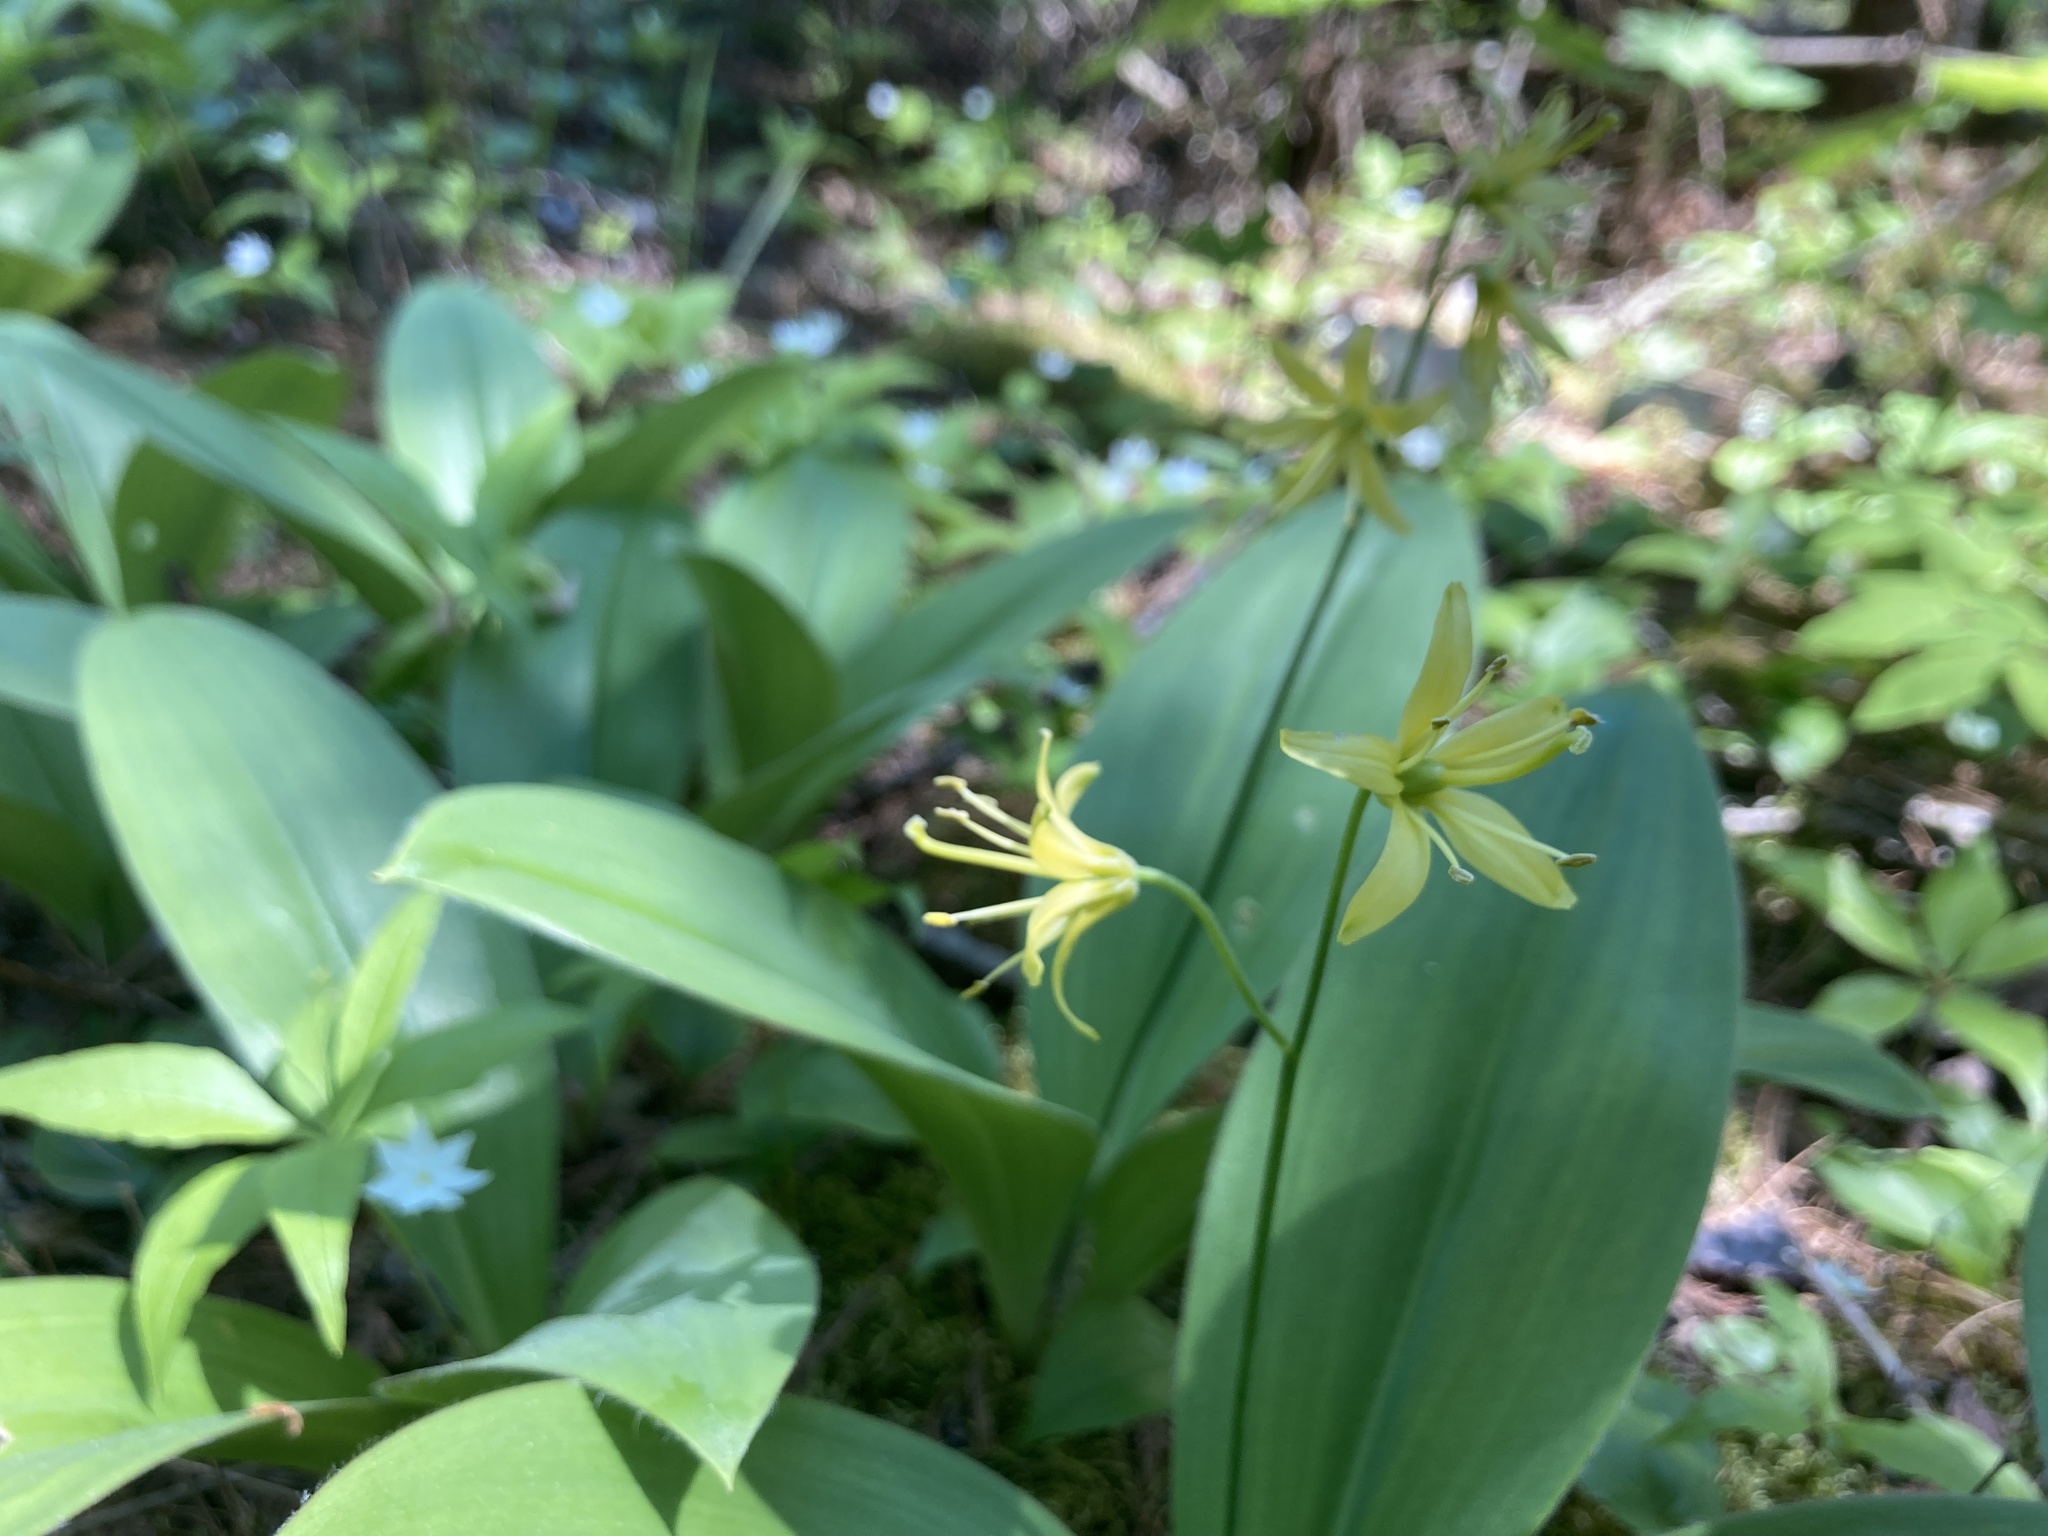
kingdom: Plantae
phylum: Tracheophyta
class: Liliopsida
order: Liliales
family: Liliaceae
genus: Clintonia
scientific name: Clintonia borealis
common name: Yellow clintonia
